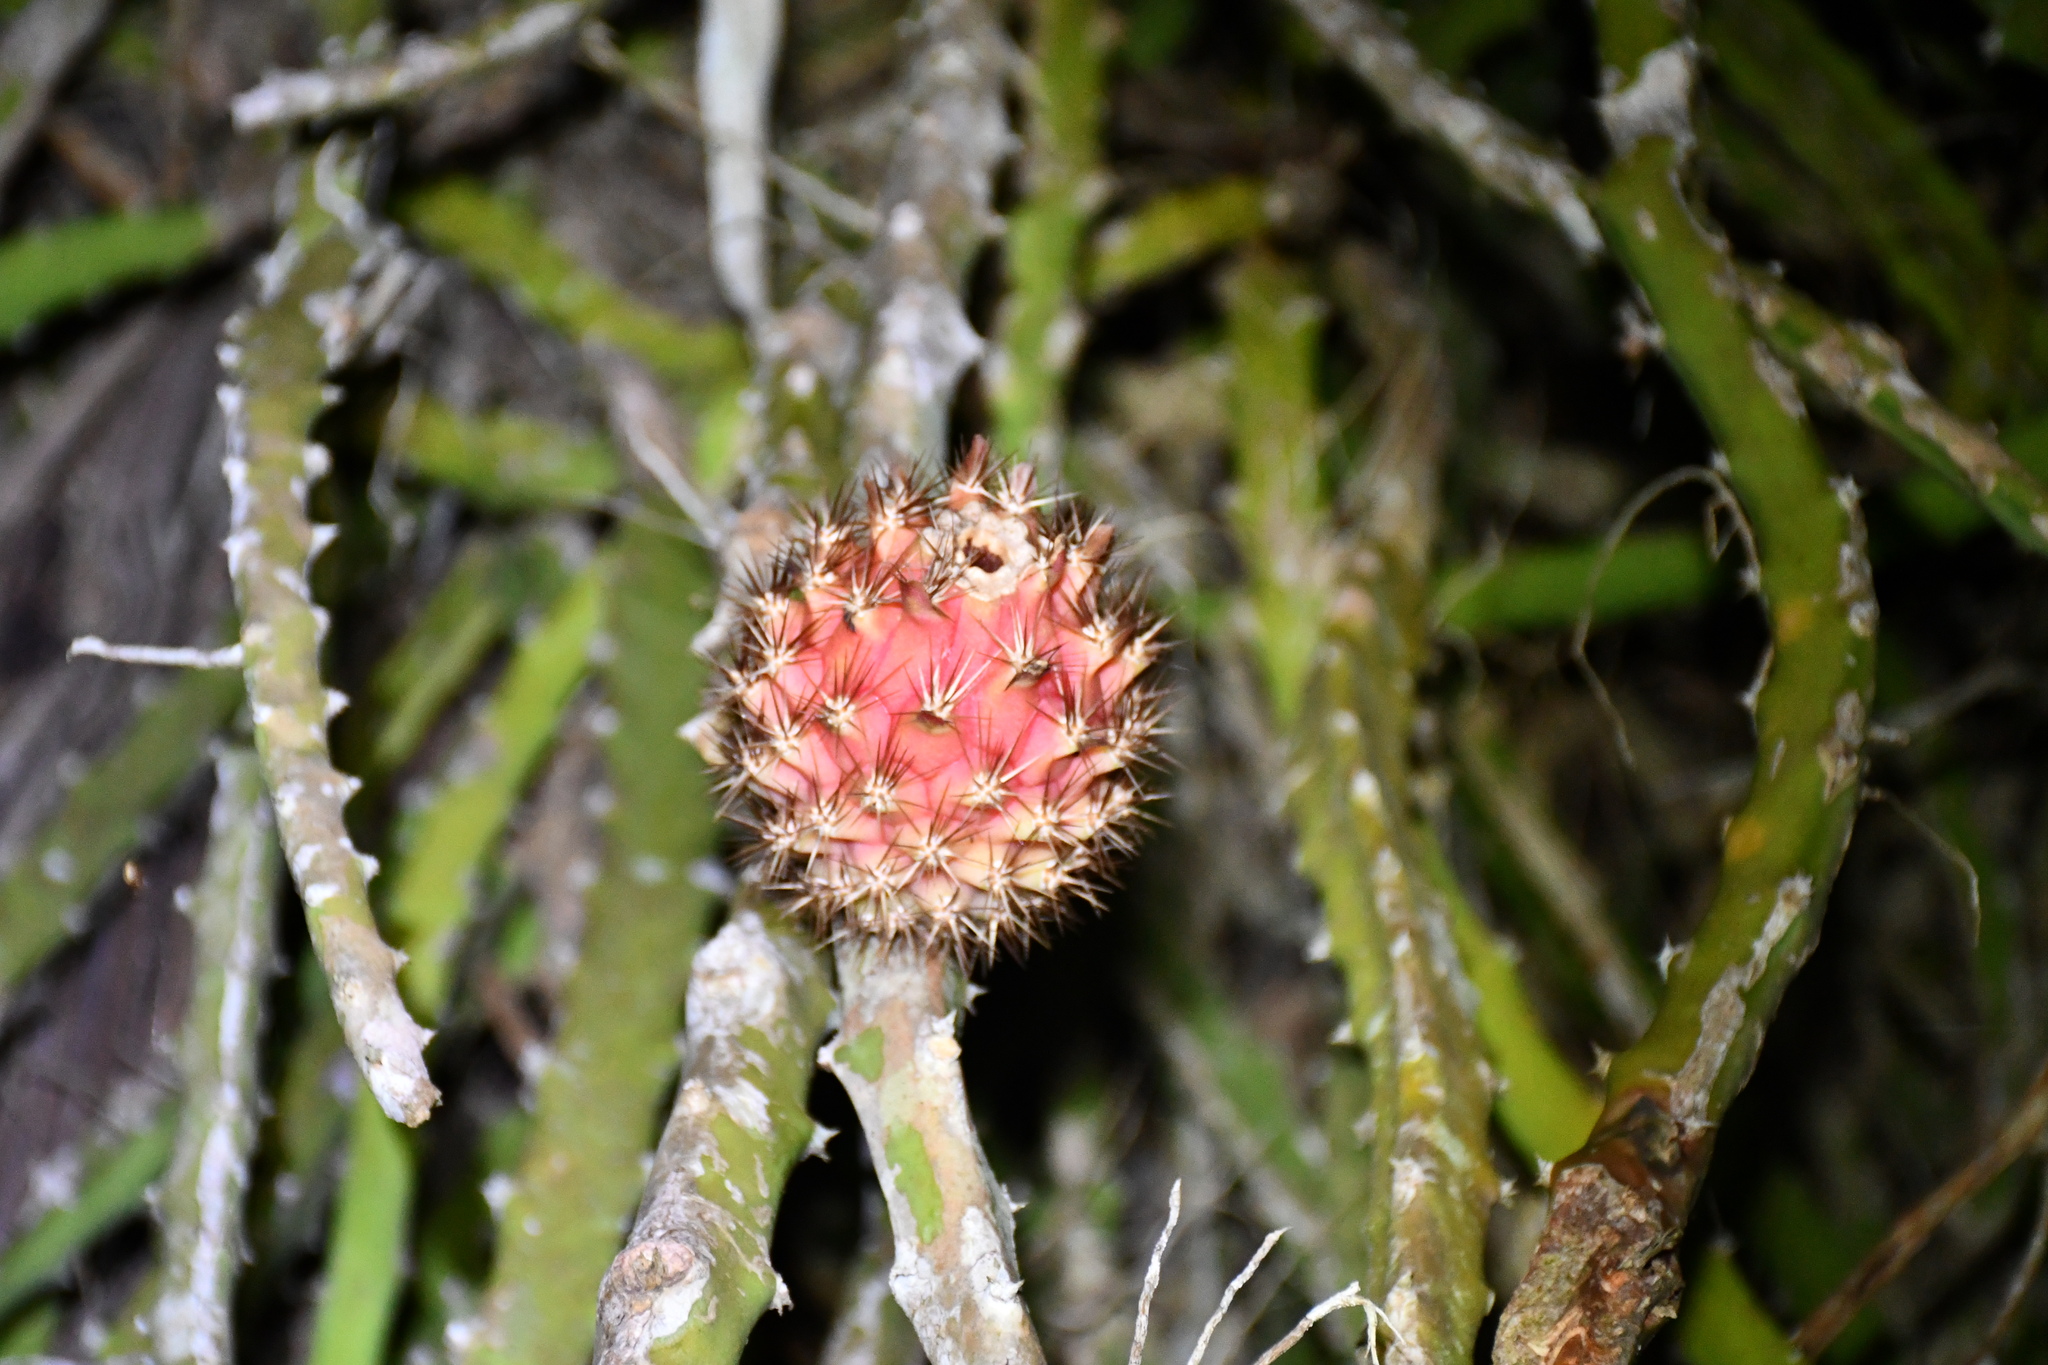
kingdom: Plantae
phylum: Tracheophyta
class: Magnoliopsida
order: Caryophyllales
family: Cactaceae
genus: Selenicereus
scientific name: Selenicereus setaceus
